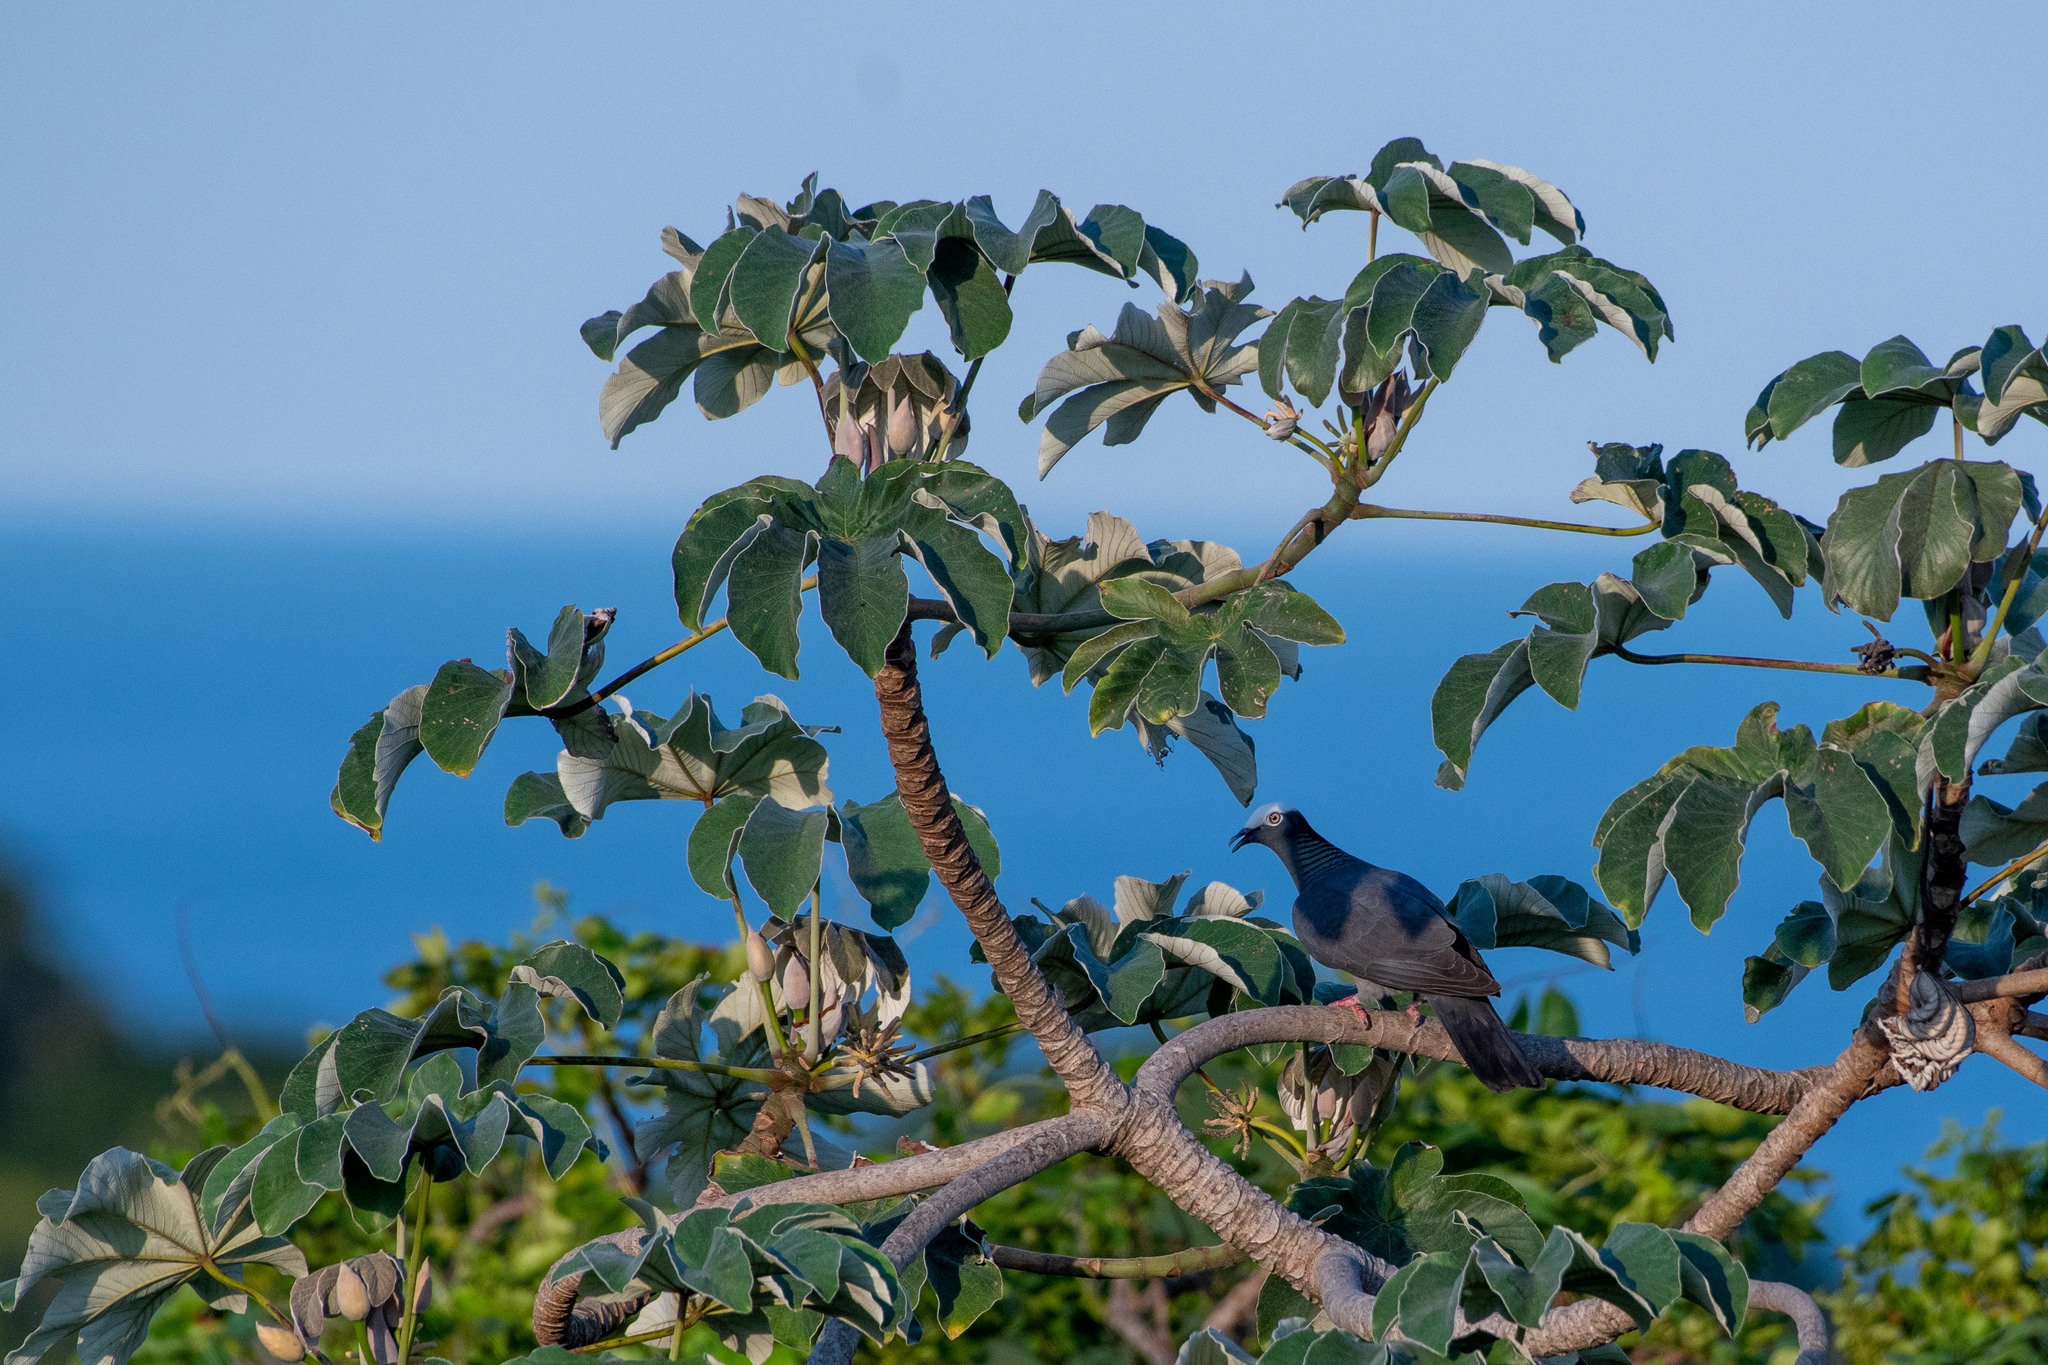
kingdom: Animalia
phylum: Chordata
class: Aves
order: Columbiformes
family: Columbidae
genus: Patagioenas
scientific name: Patagioenas leucocephala
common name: White-crowned pigeon
